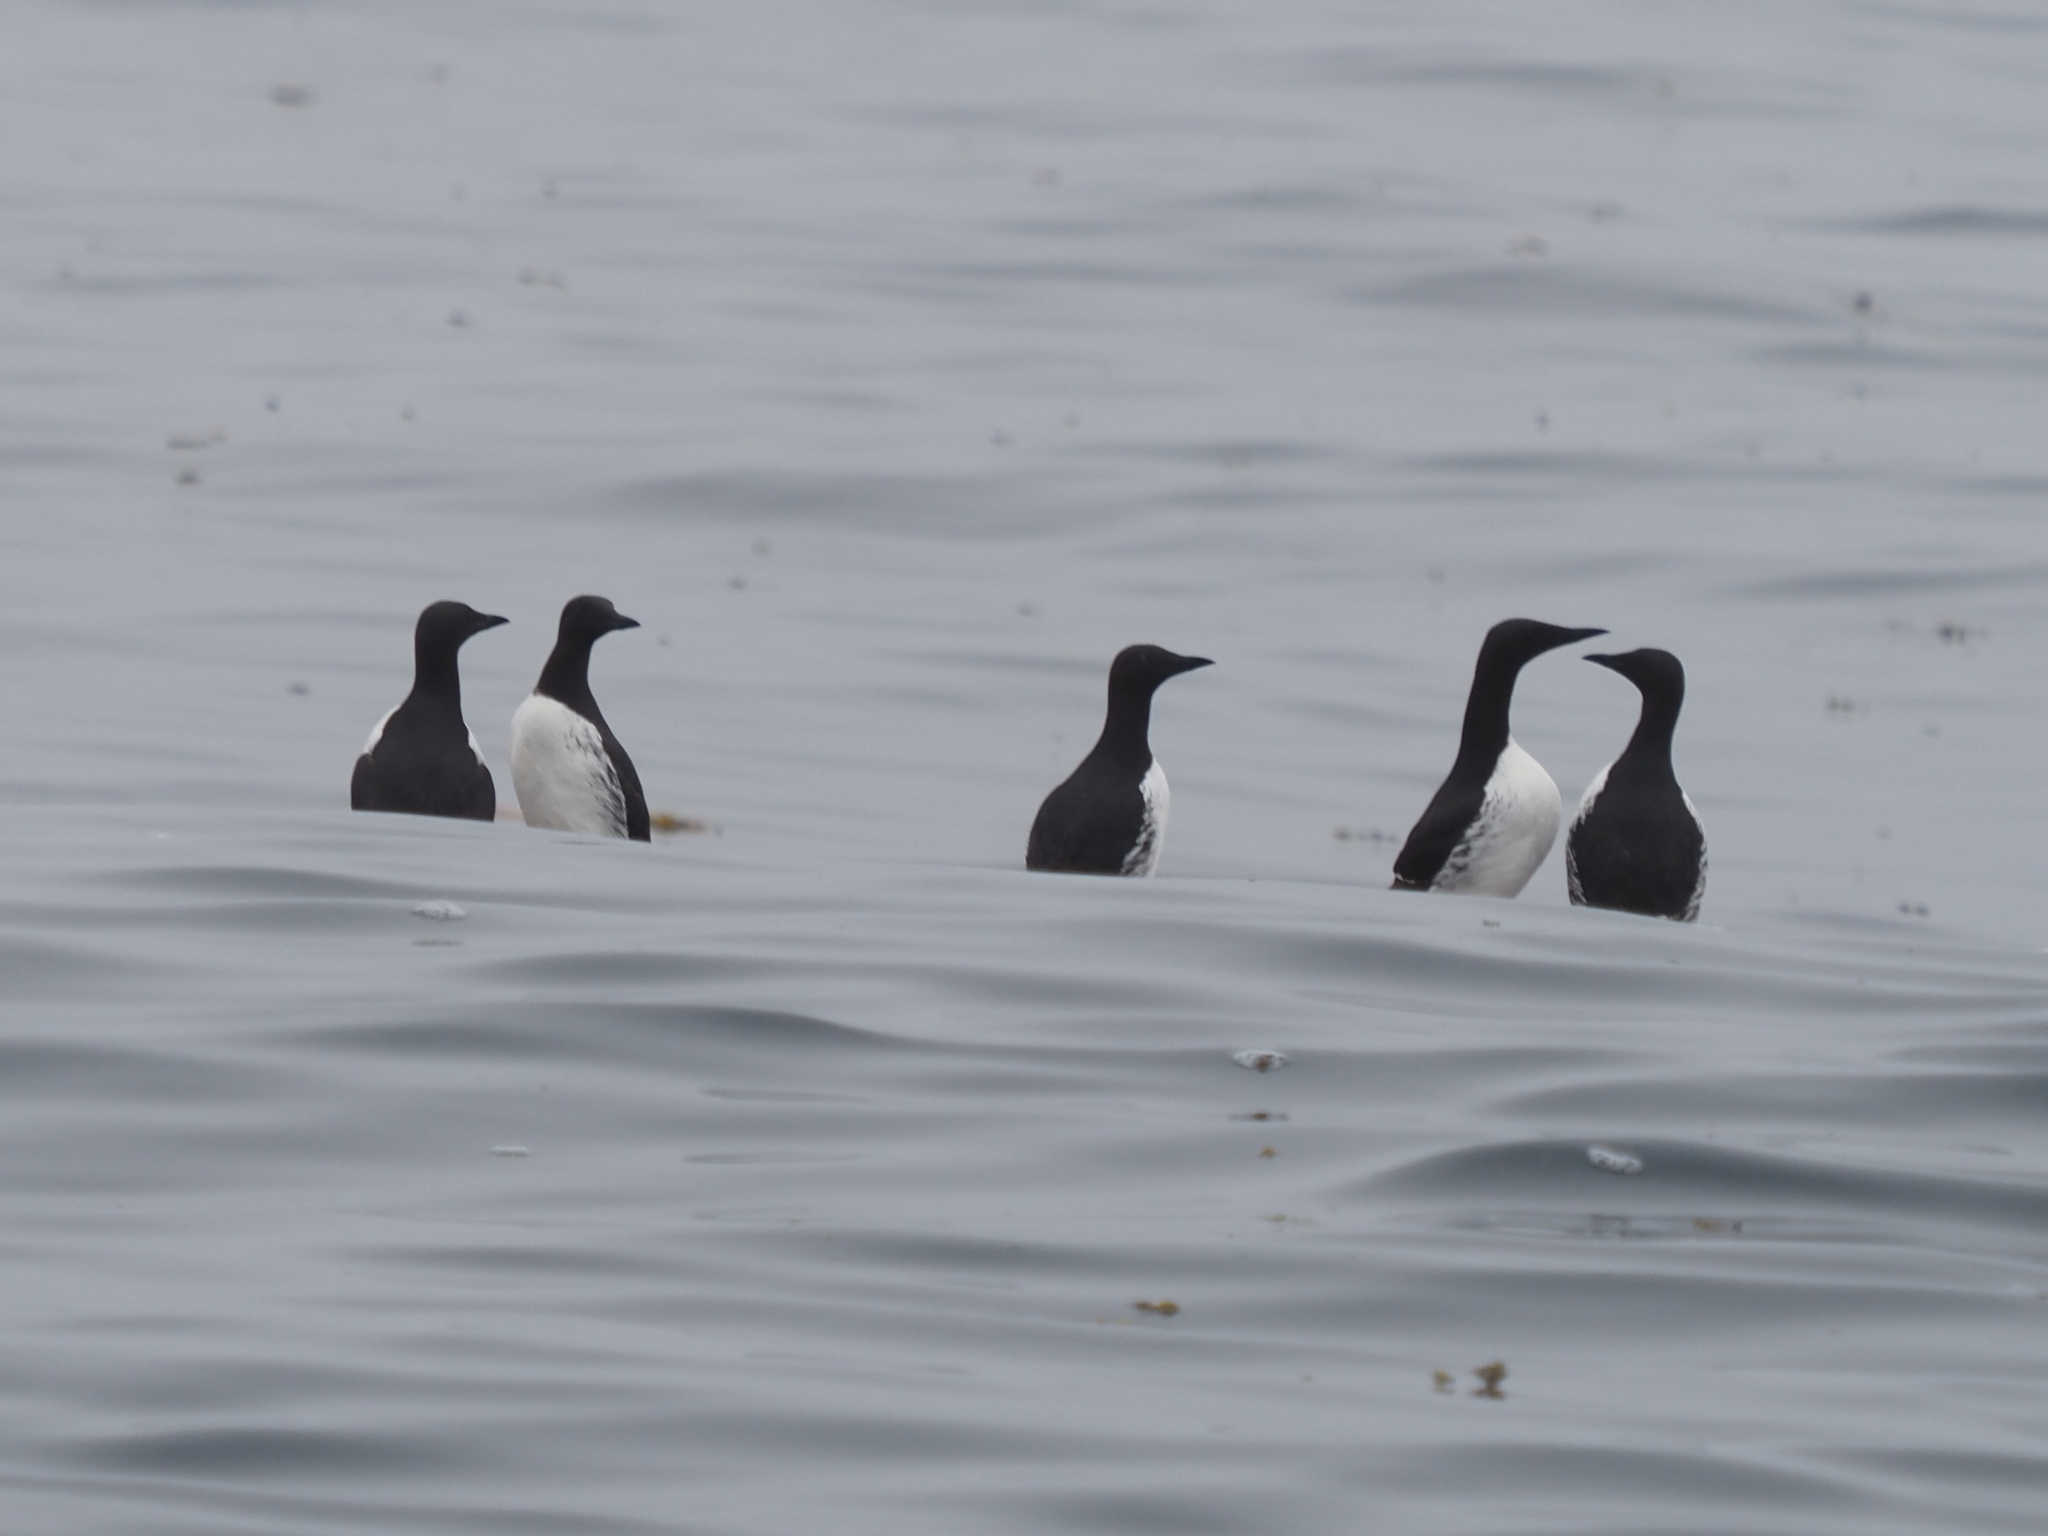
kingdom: Animalia
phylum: Chordata
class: Aves
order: Charadriiformes
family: Alcidae
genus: Uria
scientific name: Uria aalge
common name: Common murre
